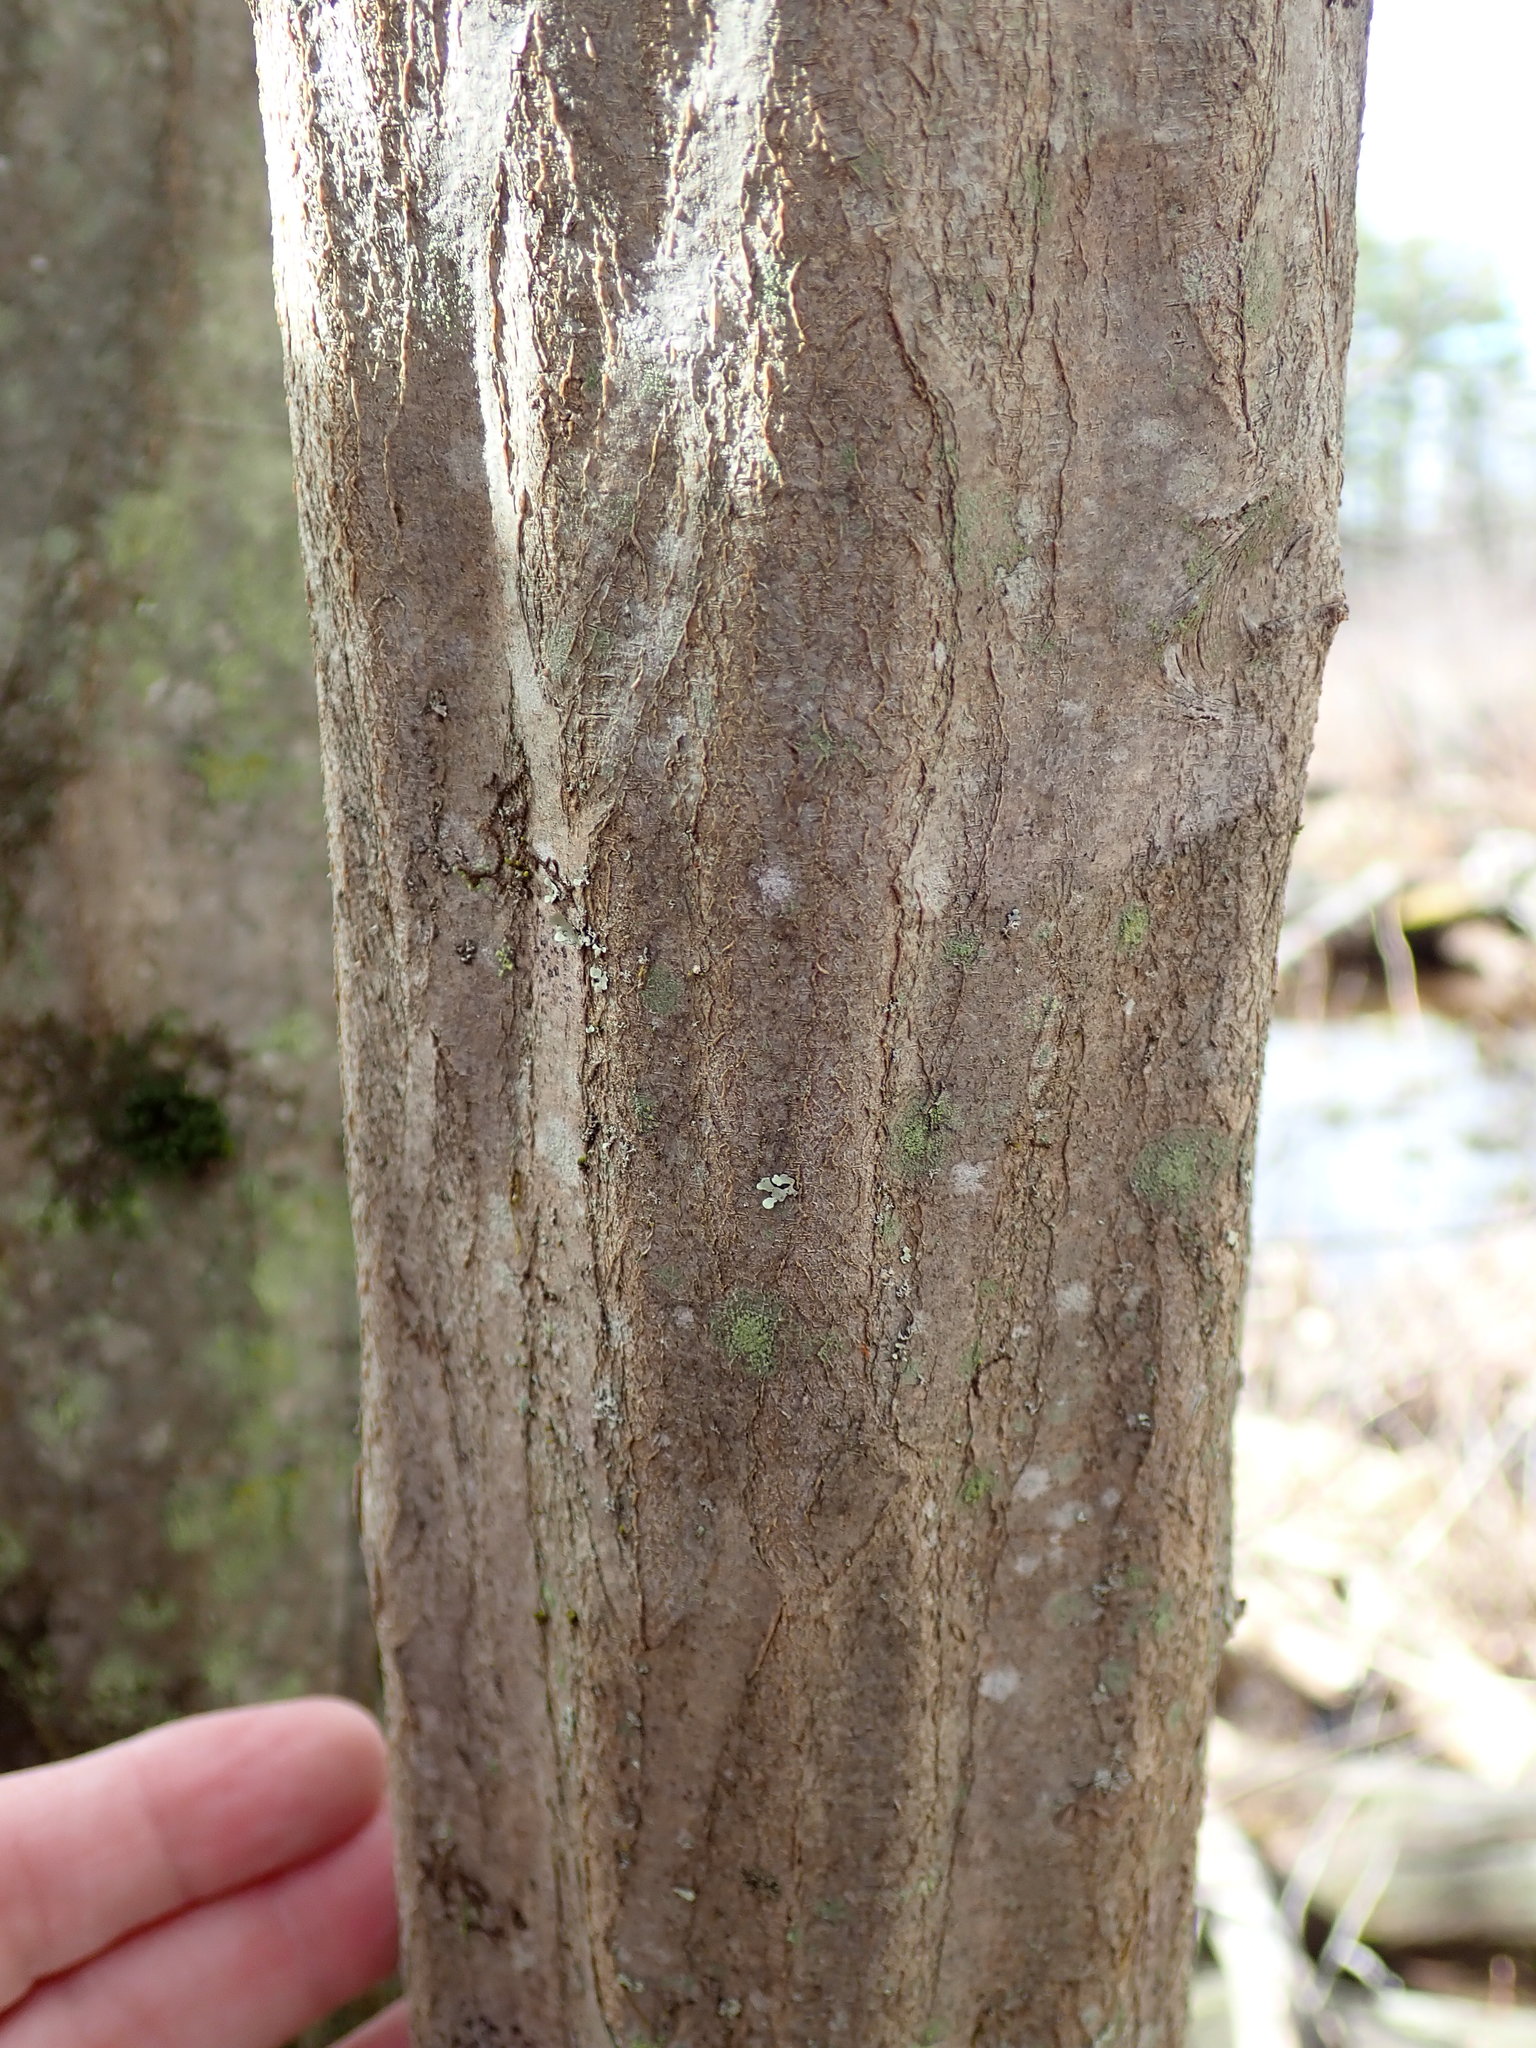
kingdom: Plantae
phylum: Tracheophyta
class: Magnoliopsida
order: Fagales
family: Betulaceae
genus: Carpinus
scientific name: Carpinus caroliniana
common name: American hornbeam
